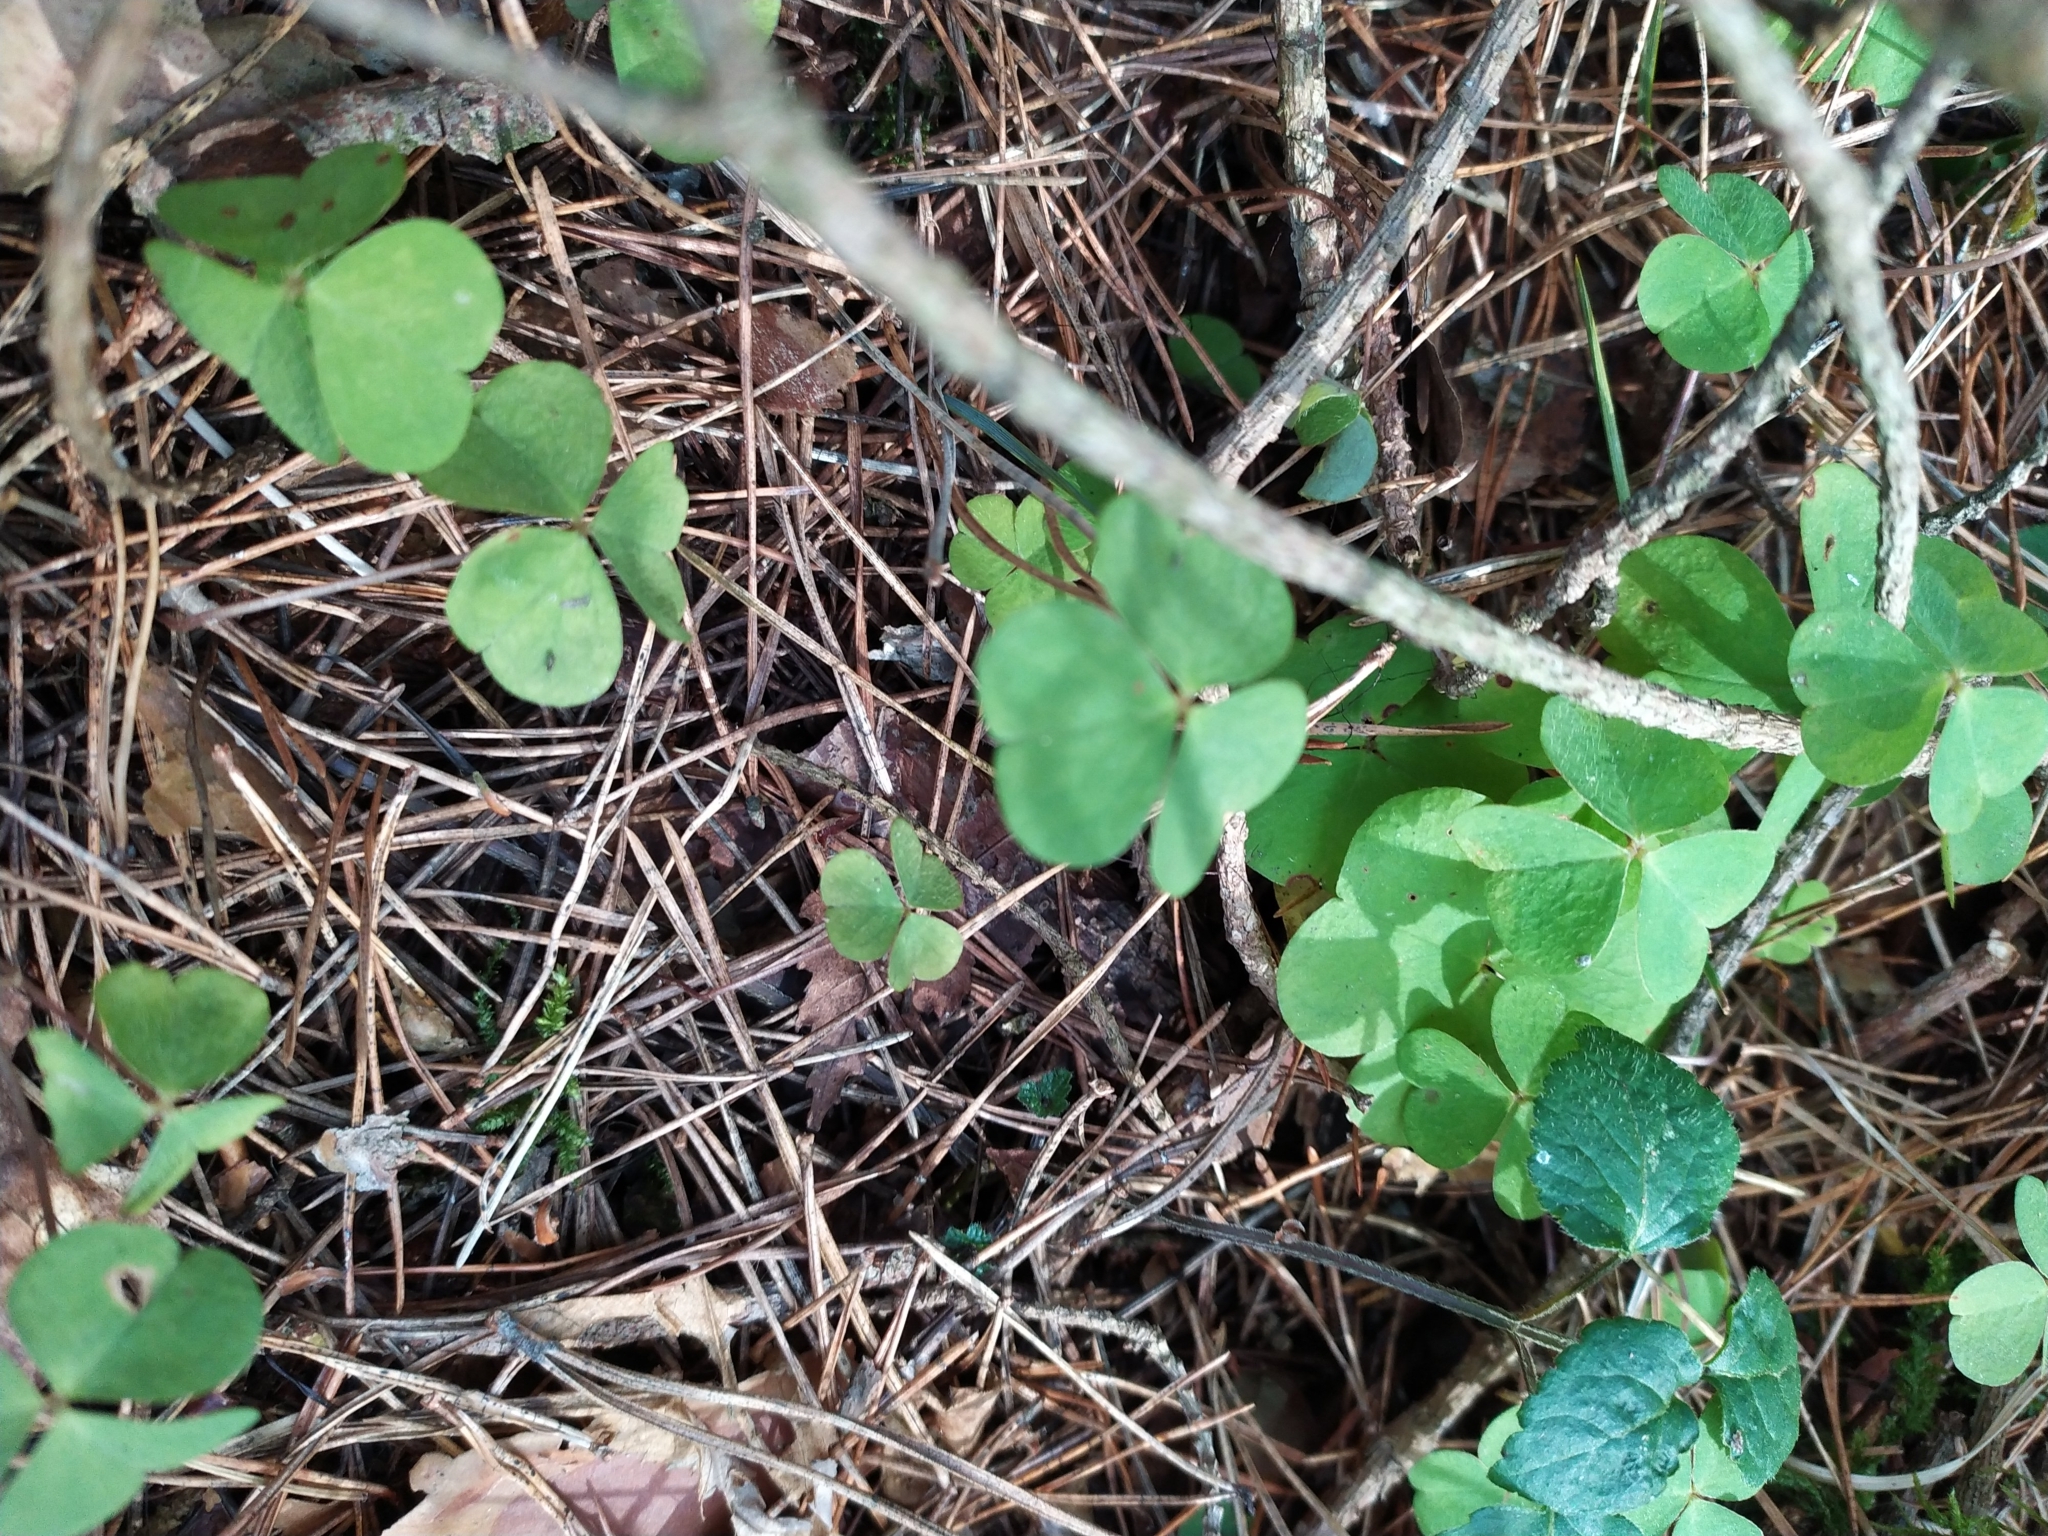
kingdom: Plantae
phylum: Tracheophyta
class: Magnoliopsida
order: Oxalidales
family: Oxalidaceae
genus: Oxalis
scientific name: Oxalis acetosella
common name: Wood-sorrel
